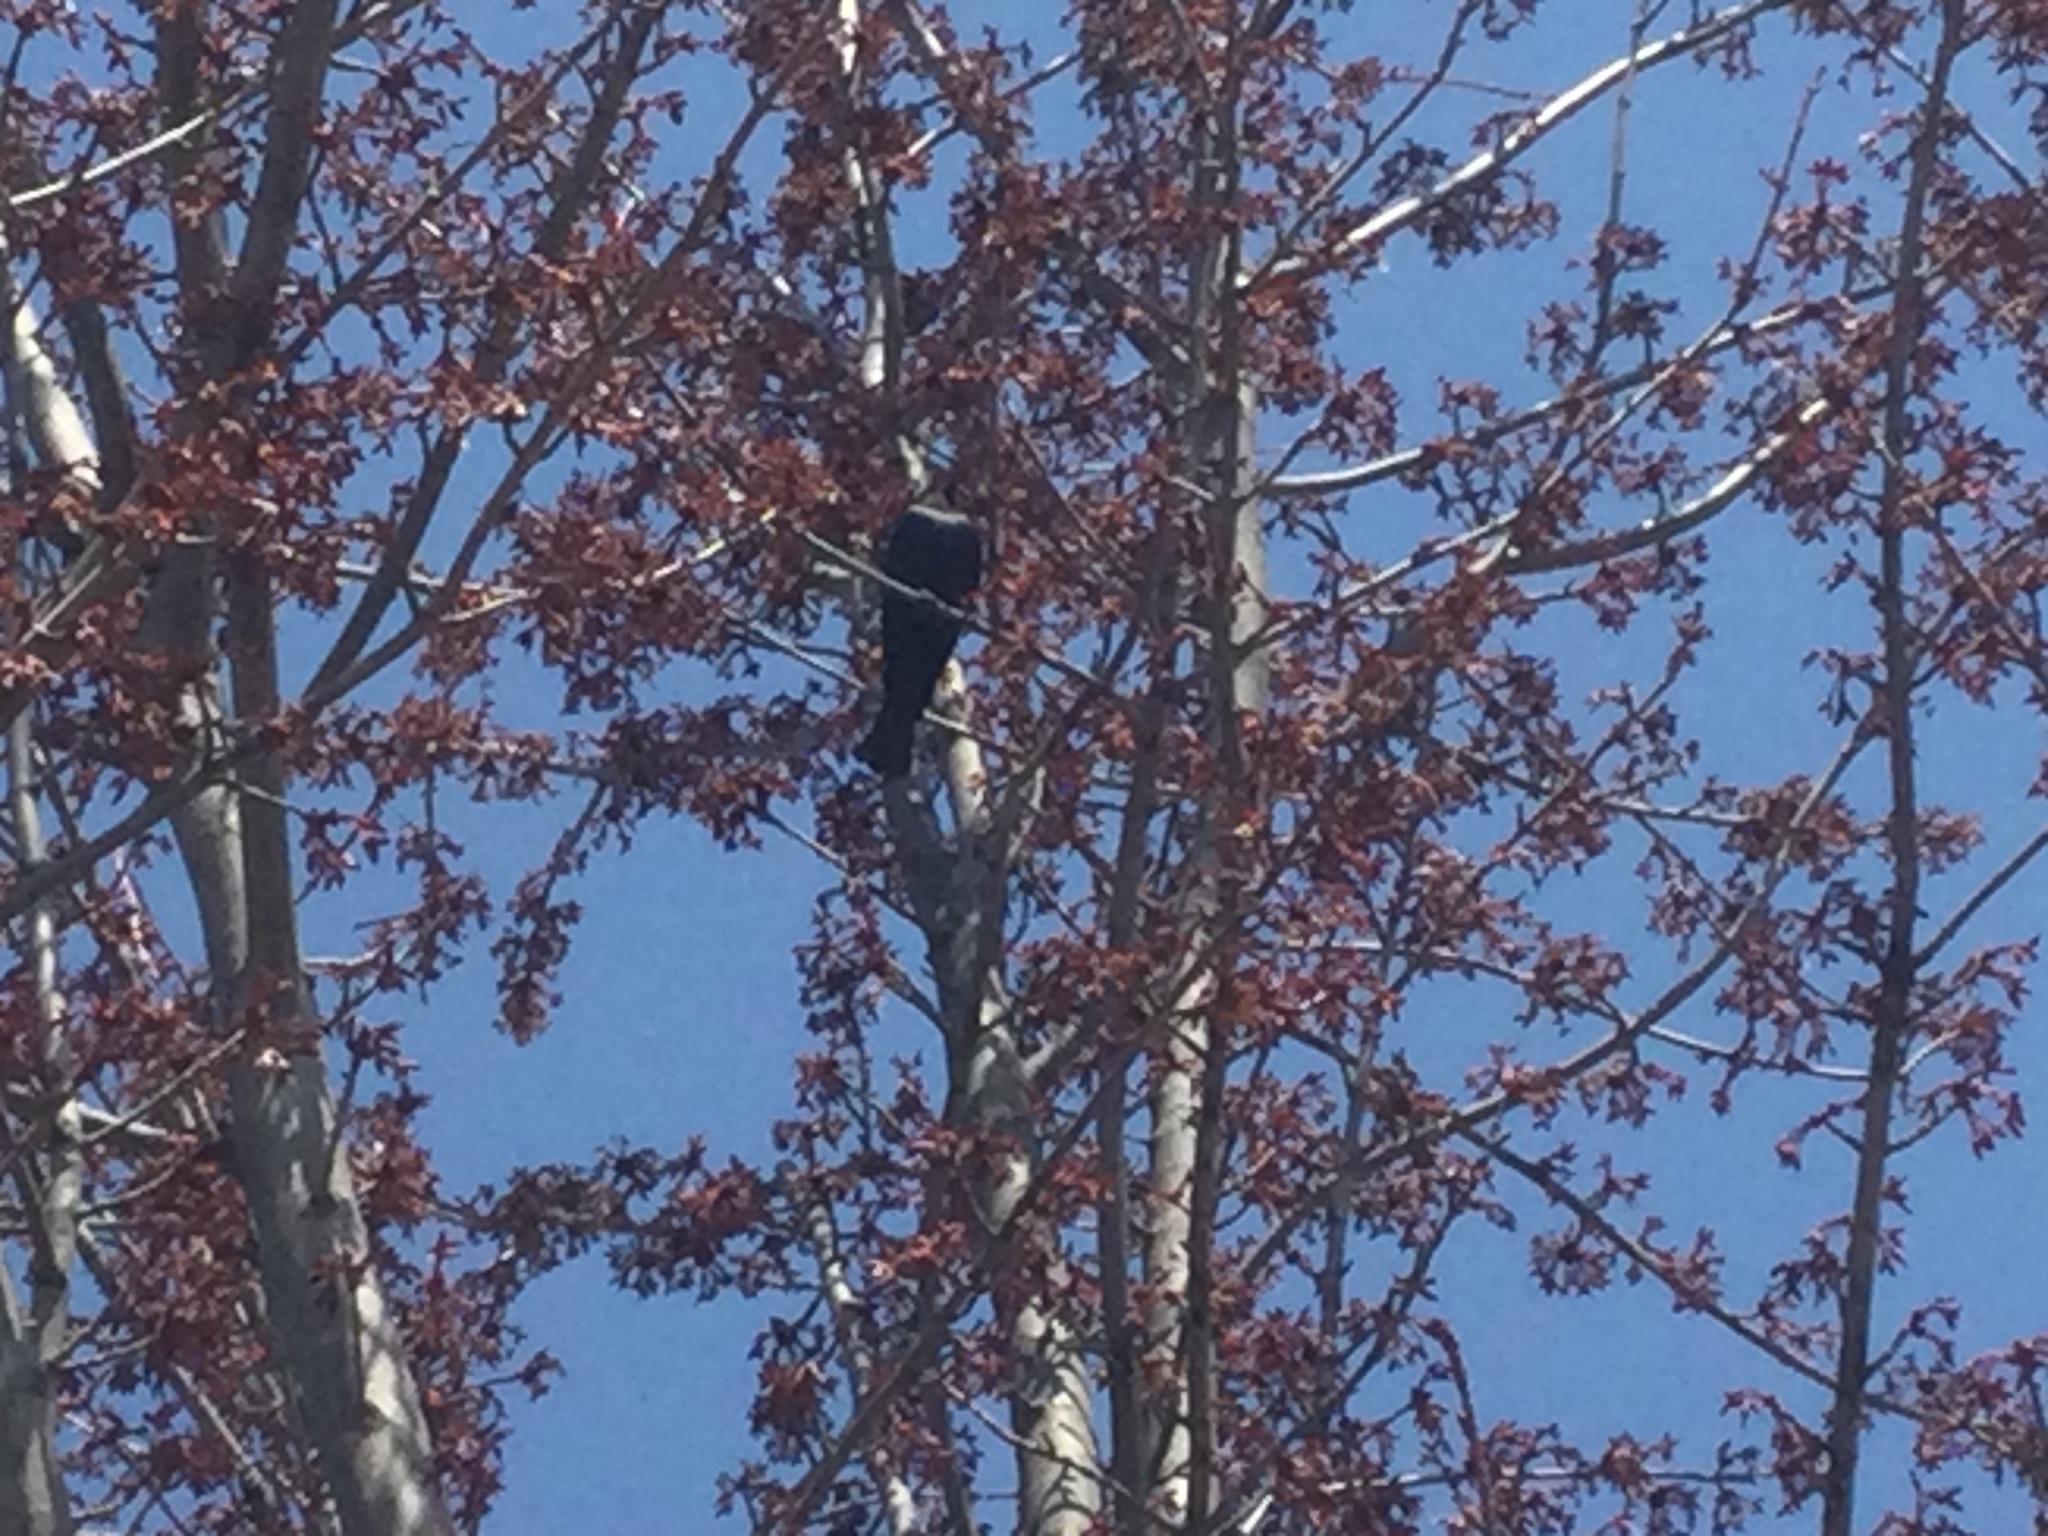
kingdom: Animalia
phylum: Chordata
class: Aves
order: Passeriformes
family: Icteridae
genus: Molothrus
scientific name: Molothrus ater
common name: Brown-headed cowbird
